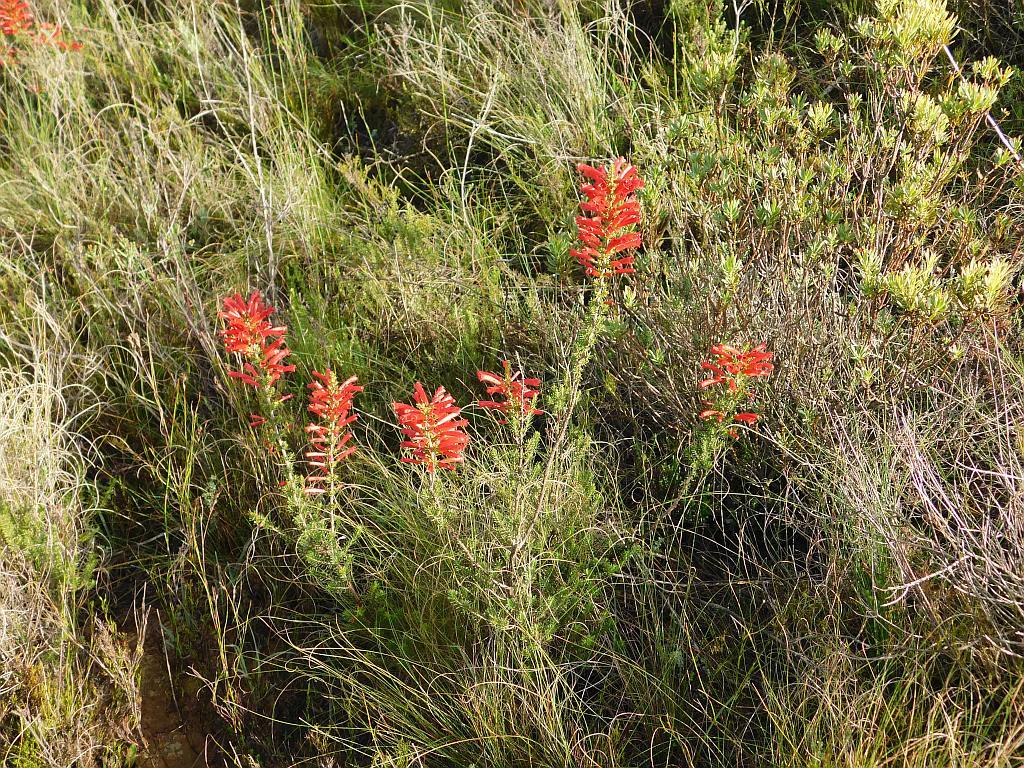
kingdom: Plantae
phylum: Tracheophyta
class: Magnoliopsida
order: Ericales
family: Ericaceae
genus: Erica
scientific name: Erica cruenta
